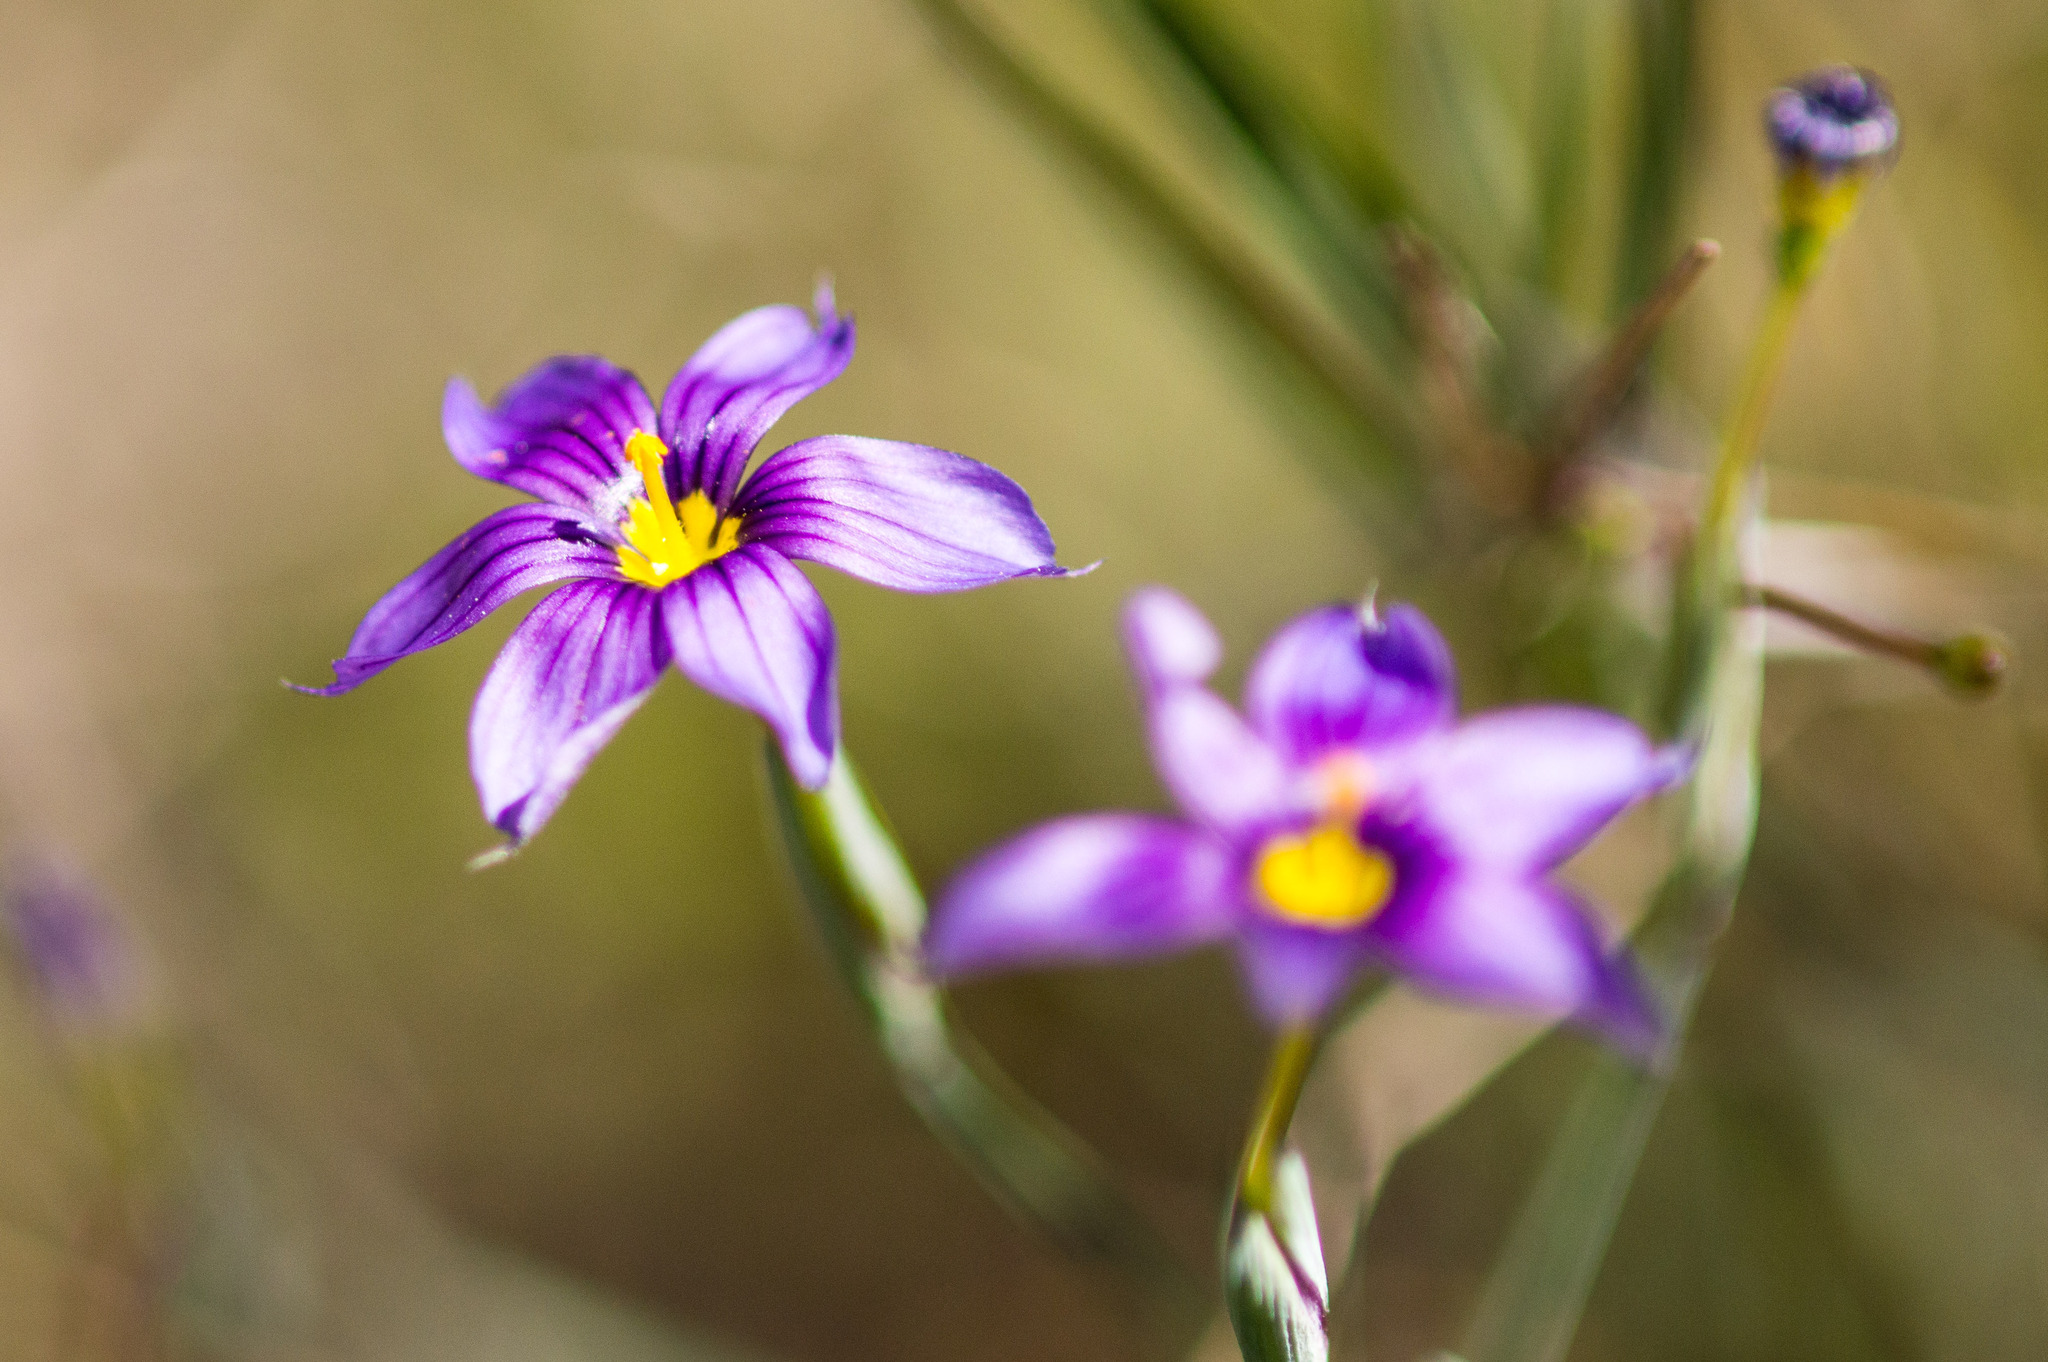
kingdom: Plantae
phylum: Tracheophyta
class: Liliopsida
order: Asparagales
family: Iridaceae
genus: Sisyrinchium
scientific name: Sisyrinchium bellum
